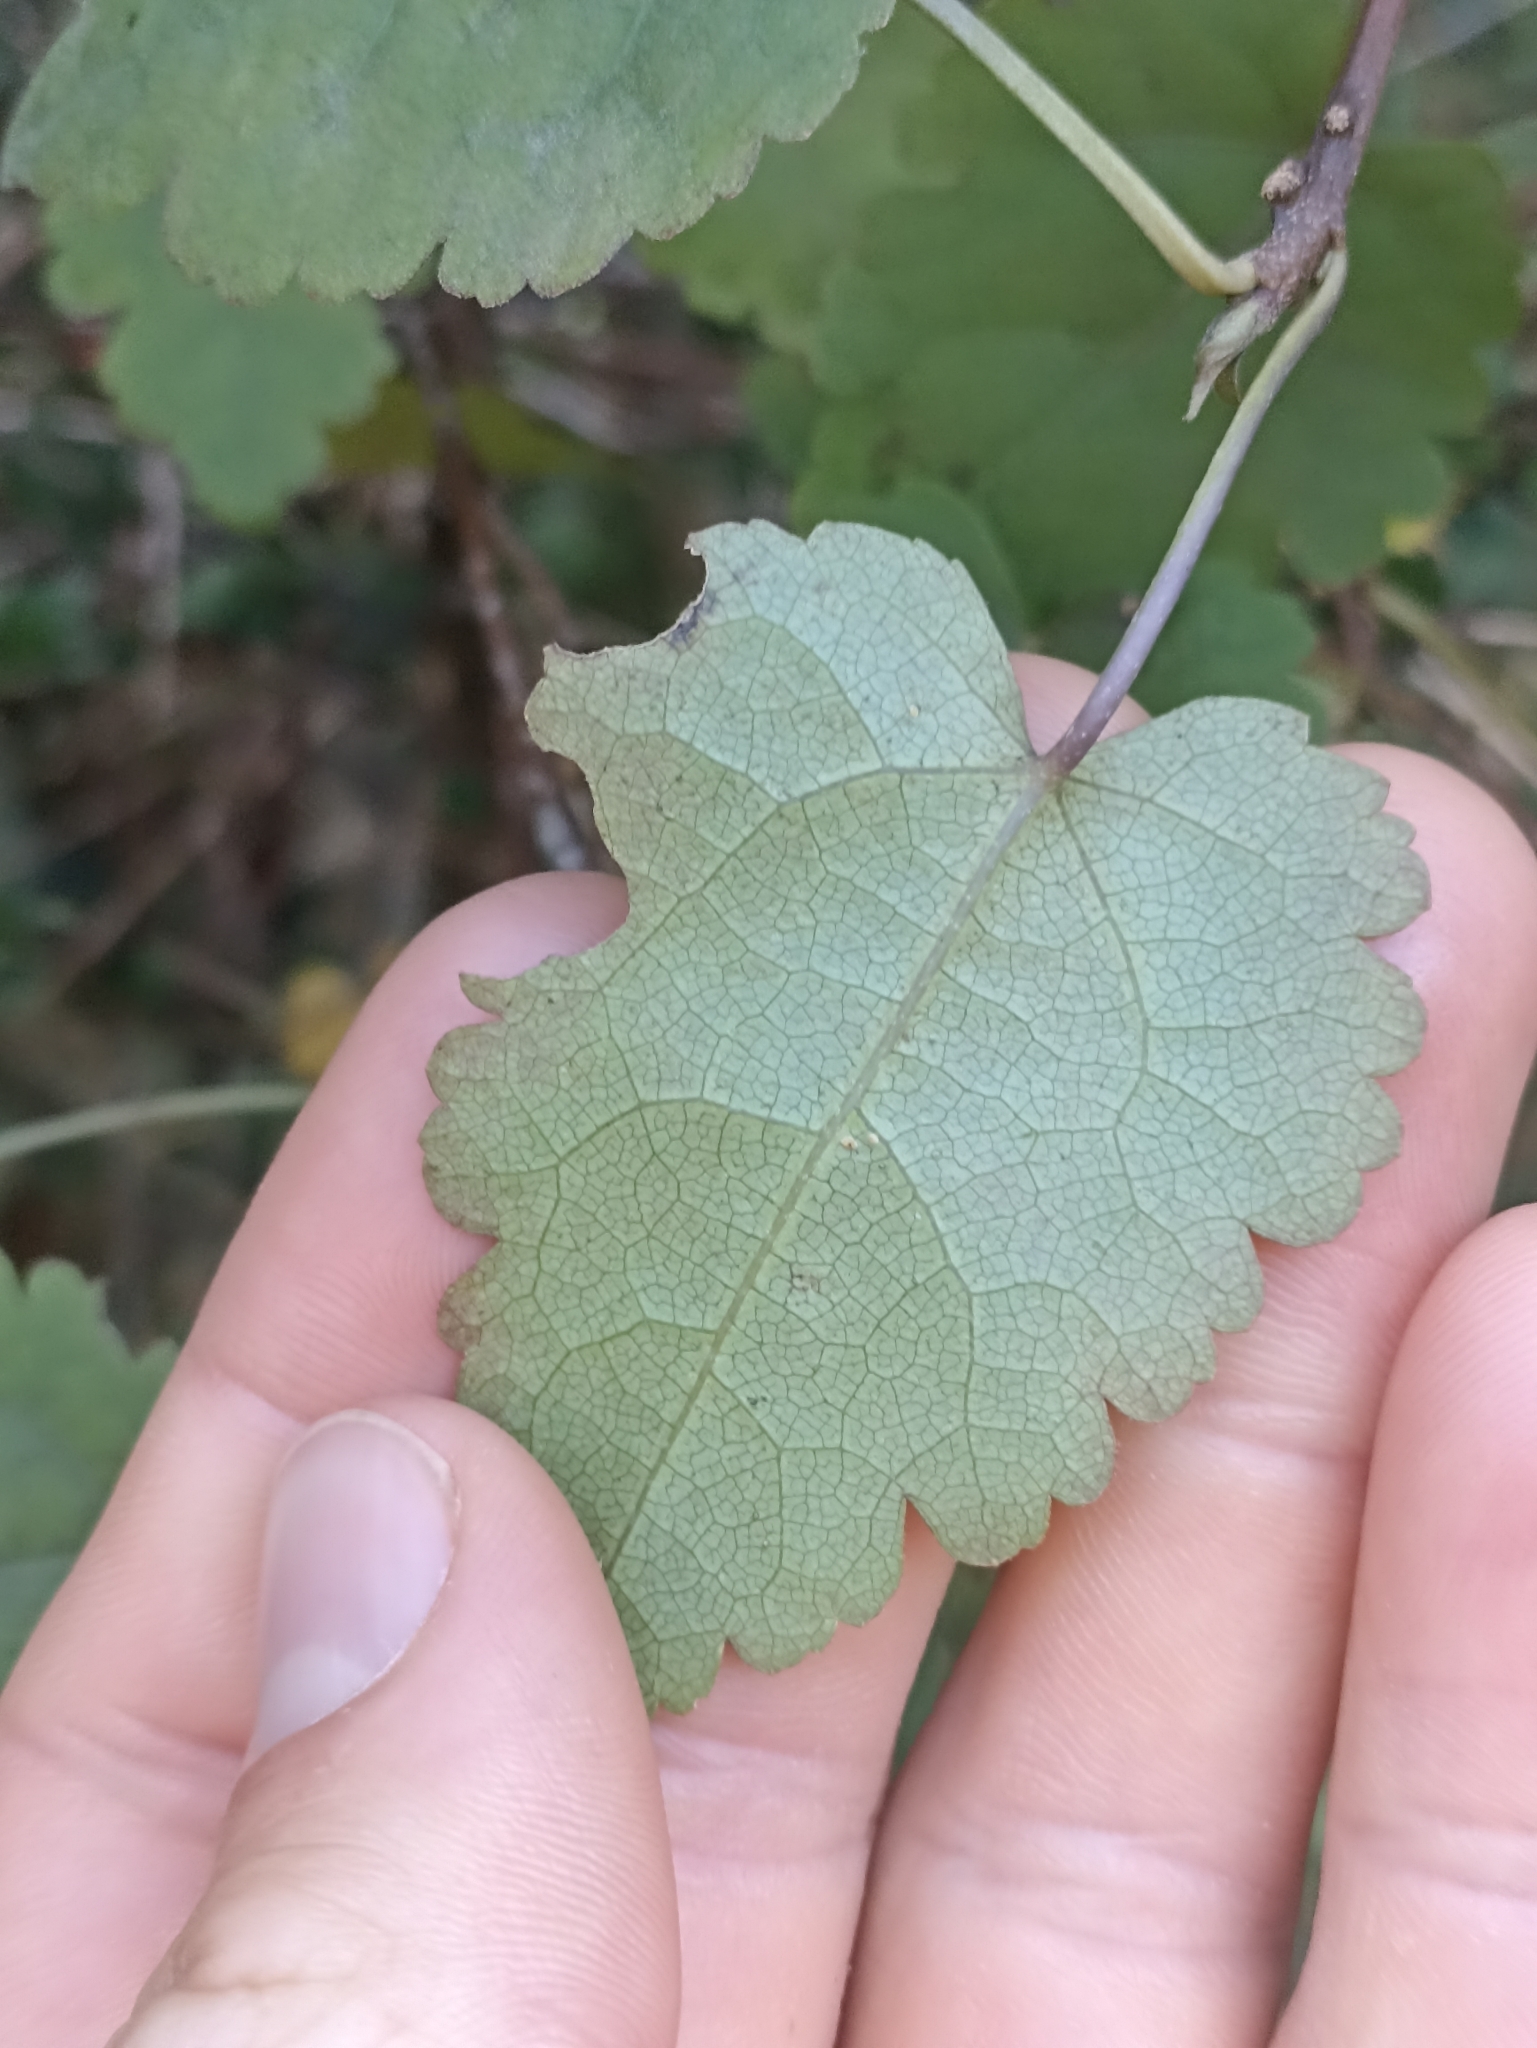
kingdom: Plantae
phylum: Tracheophyta
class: Magnoliopsida
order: Malvales
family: Malvaceae
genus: Hoheria
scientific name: Hoheria lyallii
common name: Lacebark
